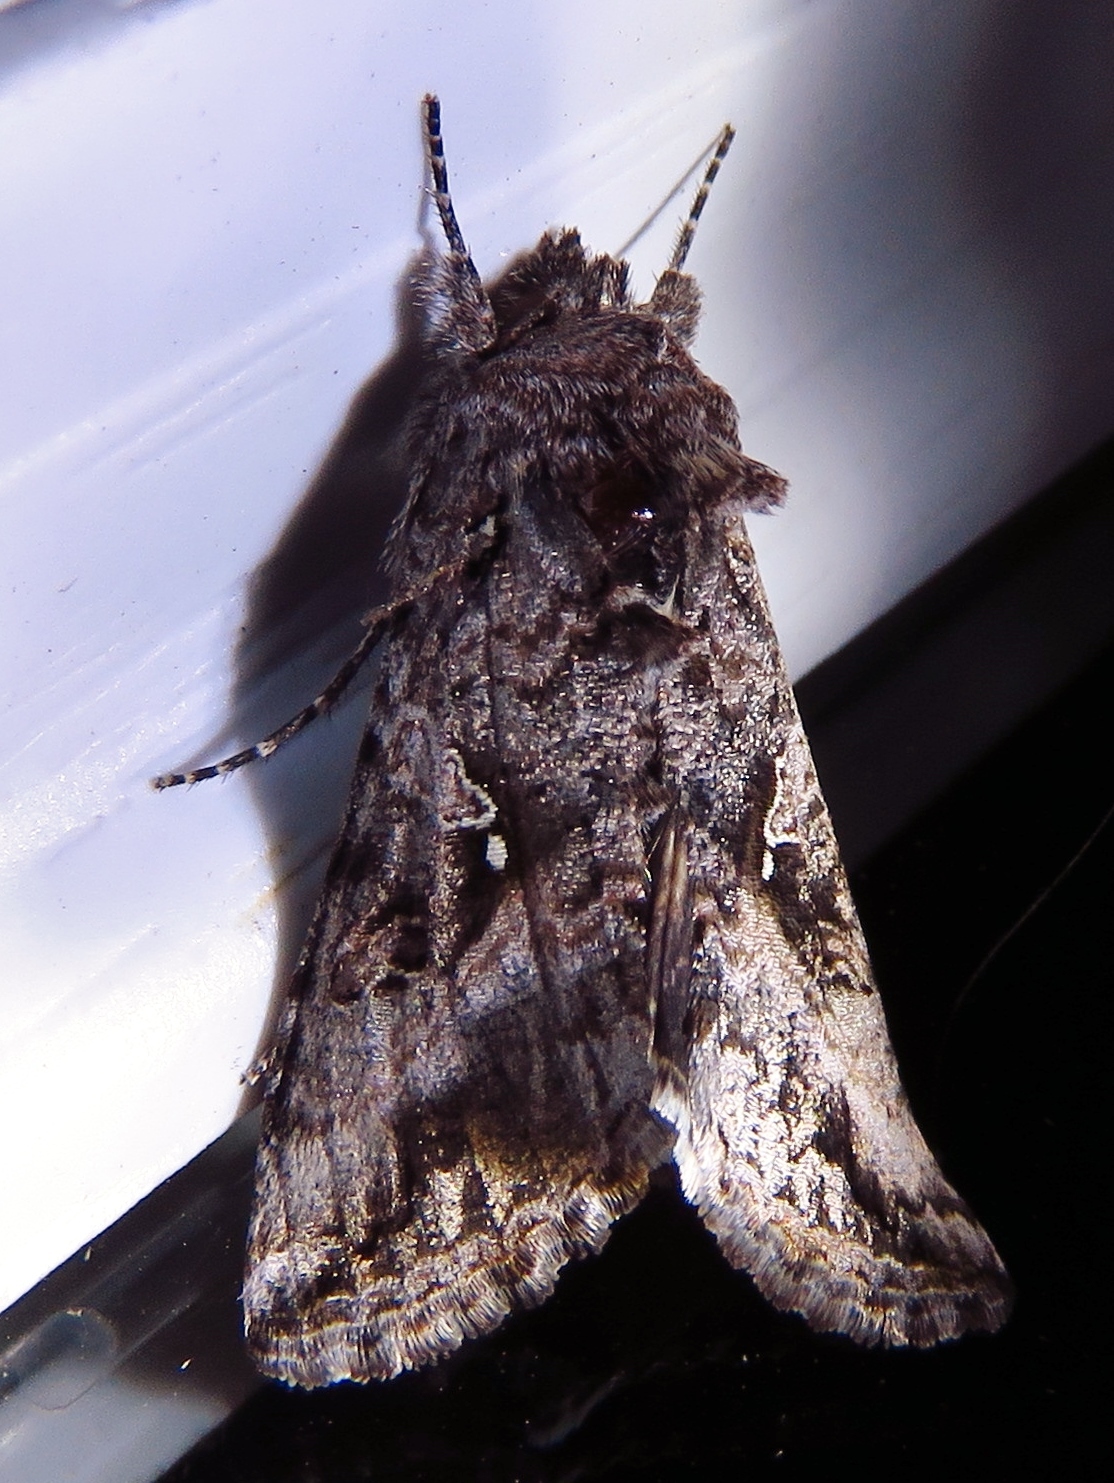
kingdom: Animalia
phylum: Arthropoda
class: Insecta
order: Lepidoptera
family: Noctuidae
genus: Rachiplusia
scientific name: Rachiplusia ou
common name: Gray looper moth
